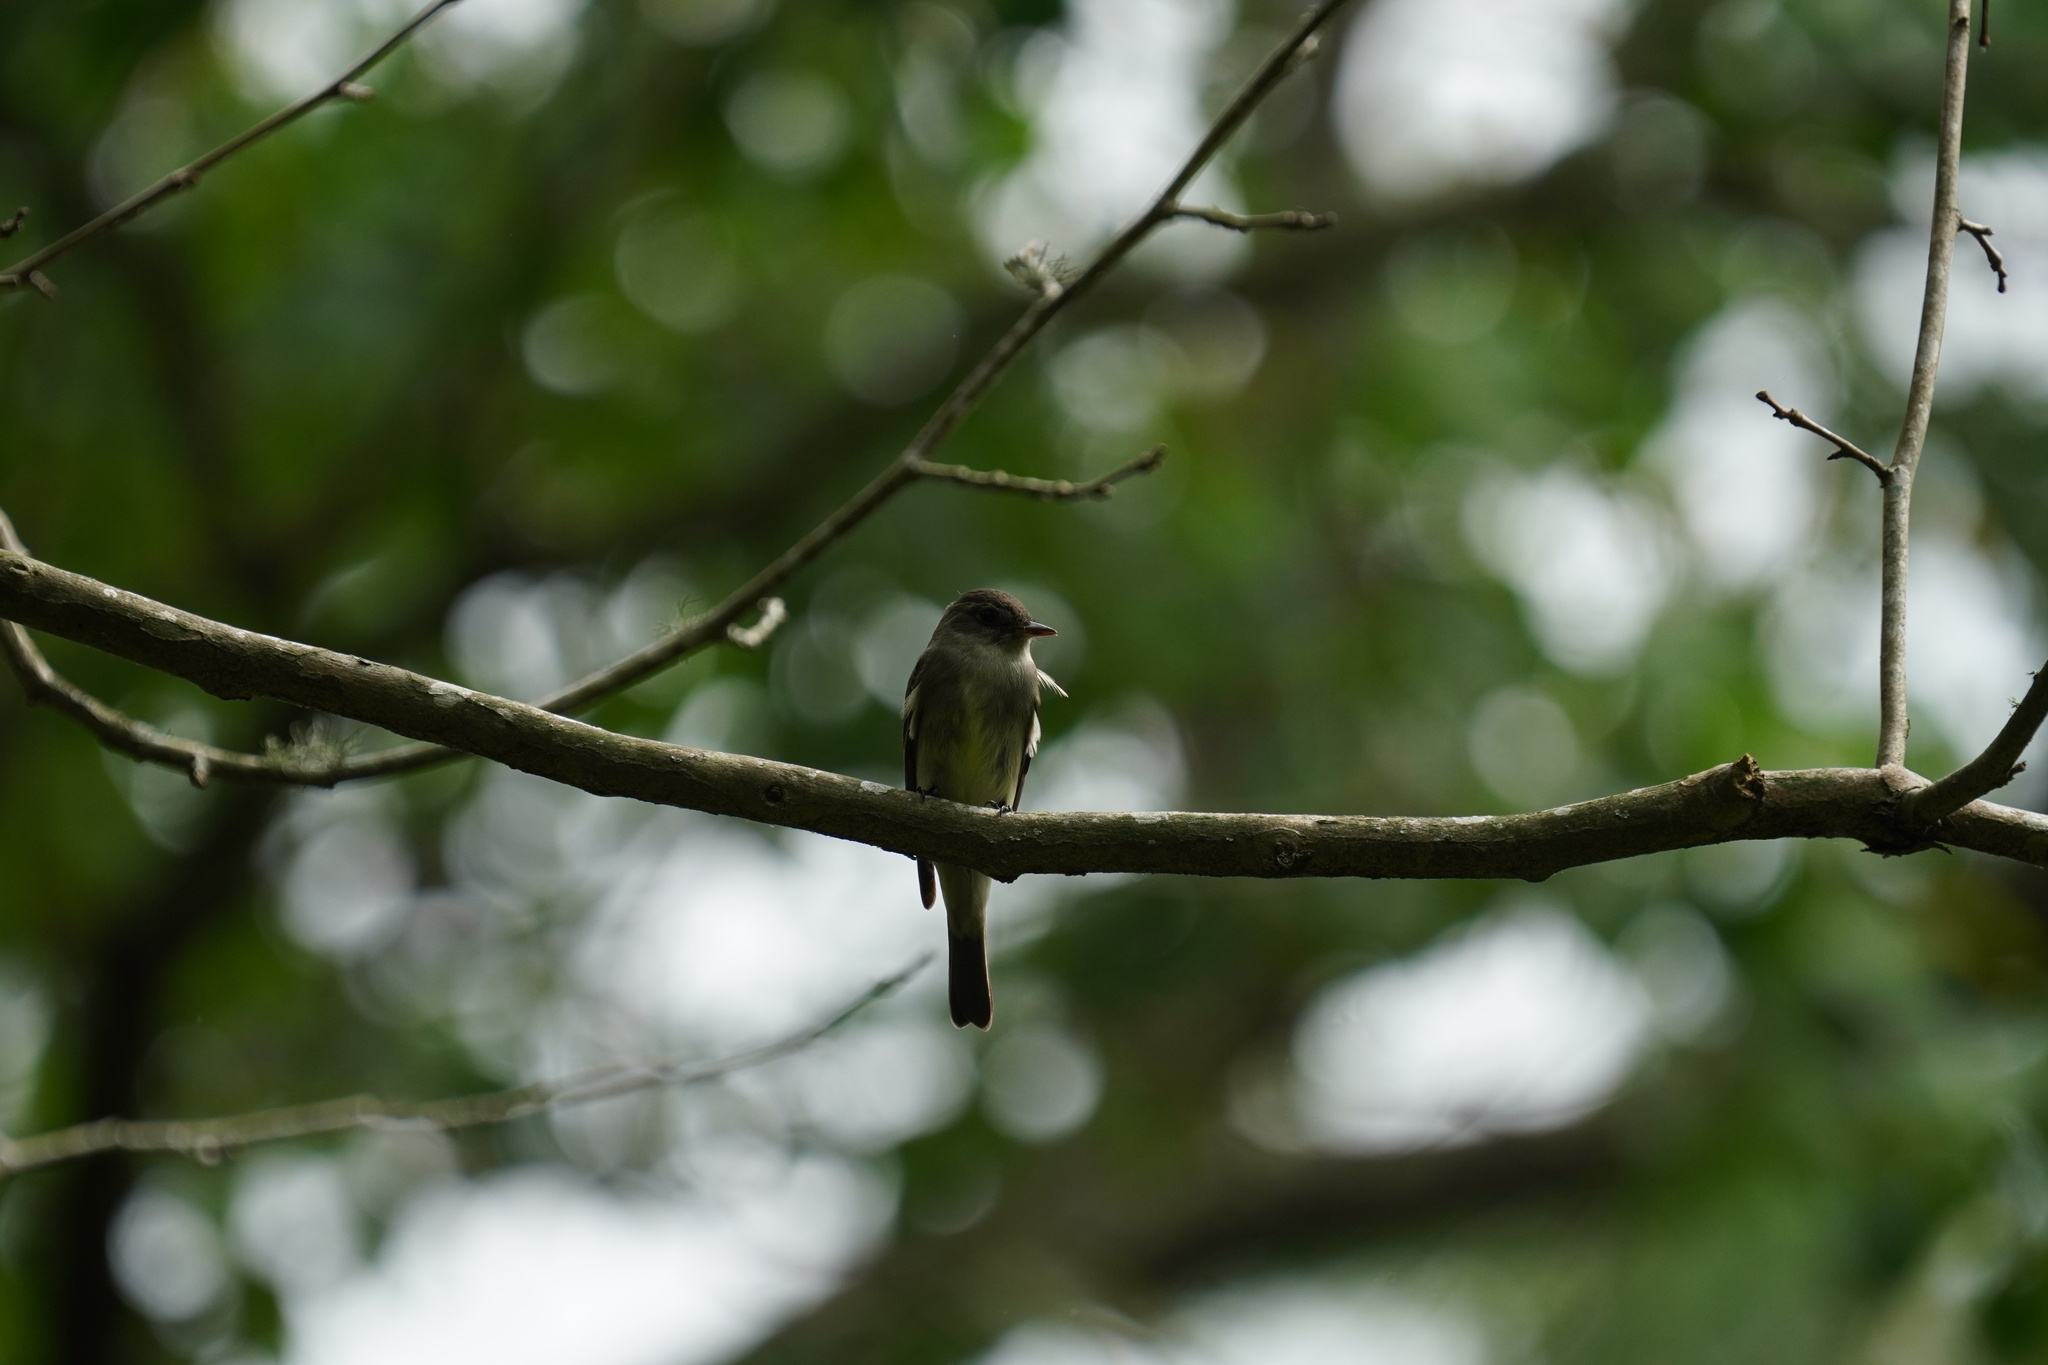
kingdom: Animalia
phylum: Chordata
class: Aves
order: Passeriformes
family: Tyrannidae
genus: Contopus
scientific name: Contopus virens
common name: Eastern wood-pewee
